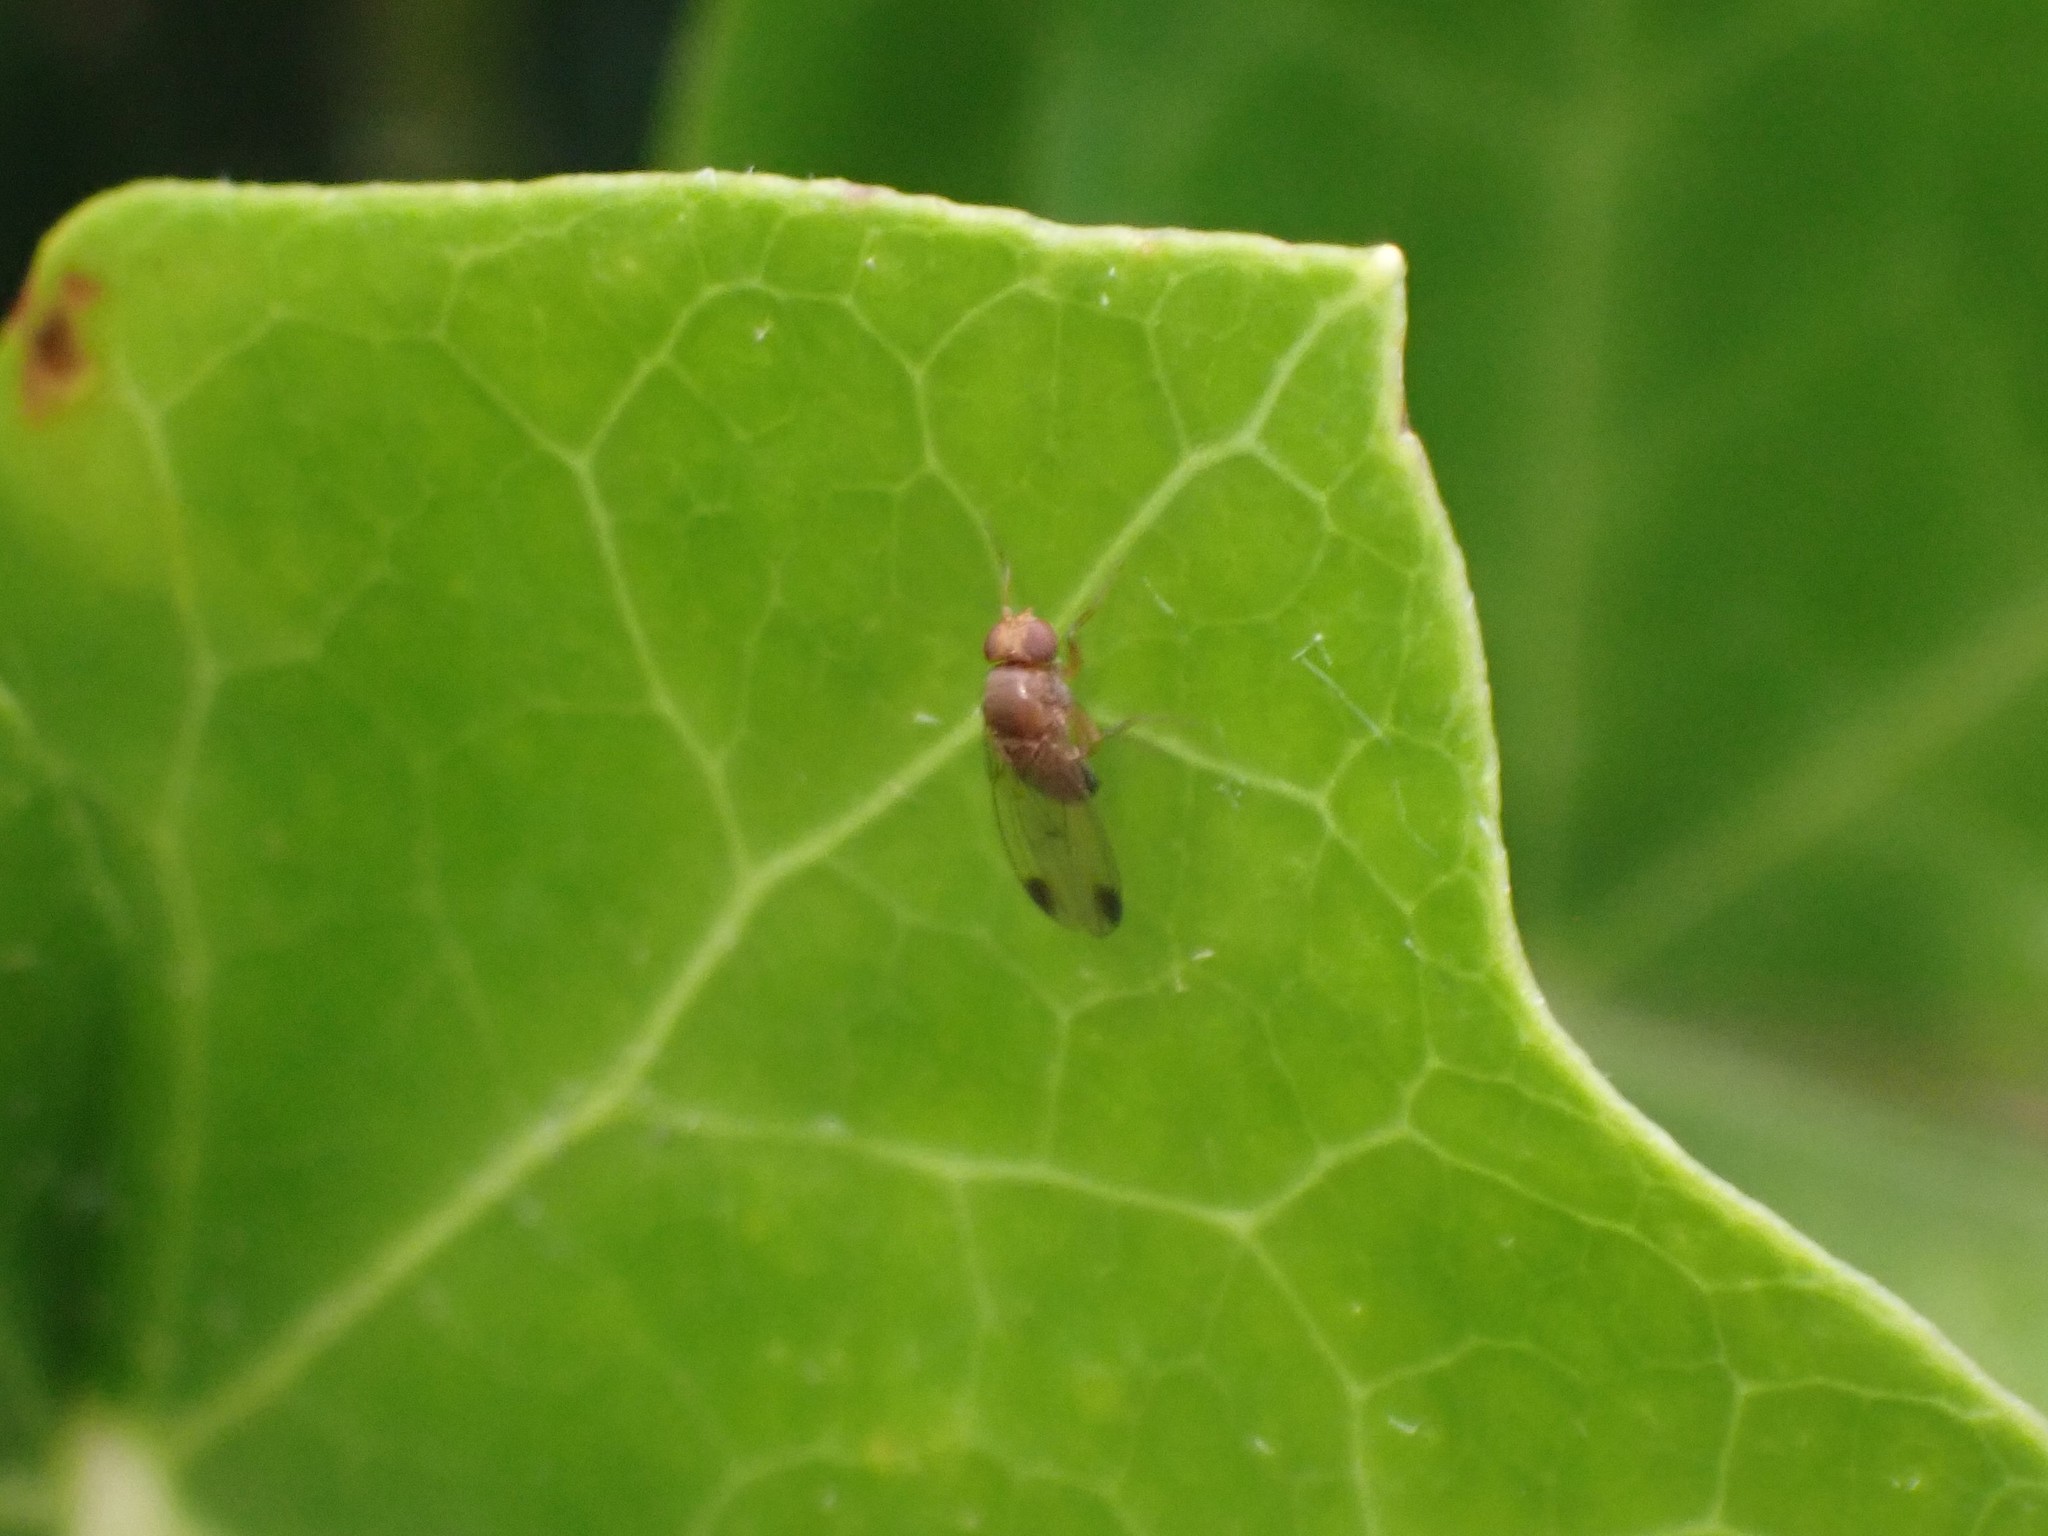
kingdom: Animalia
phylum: Arthropoda
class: Insecta
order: Diptera
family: Drosophilidae
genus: Drosophila
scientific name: Drosophila suzukii
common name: Spotted-wing drosophila
